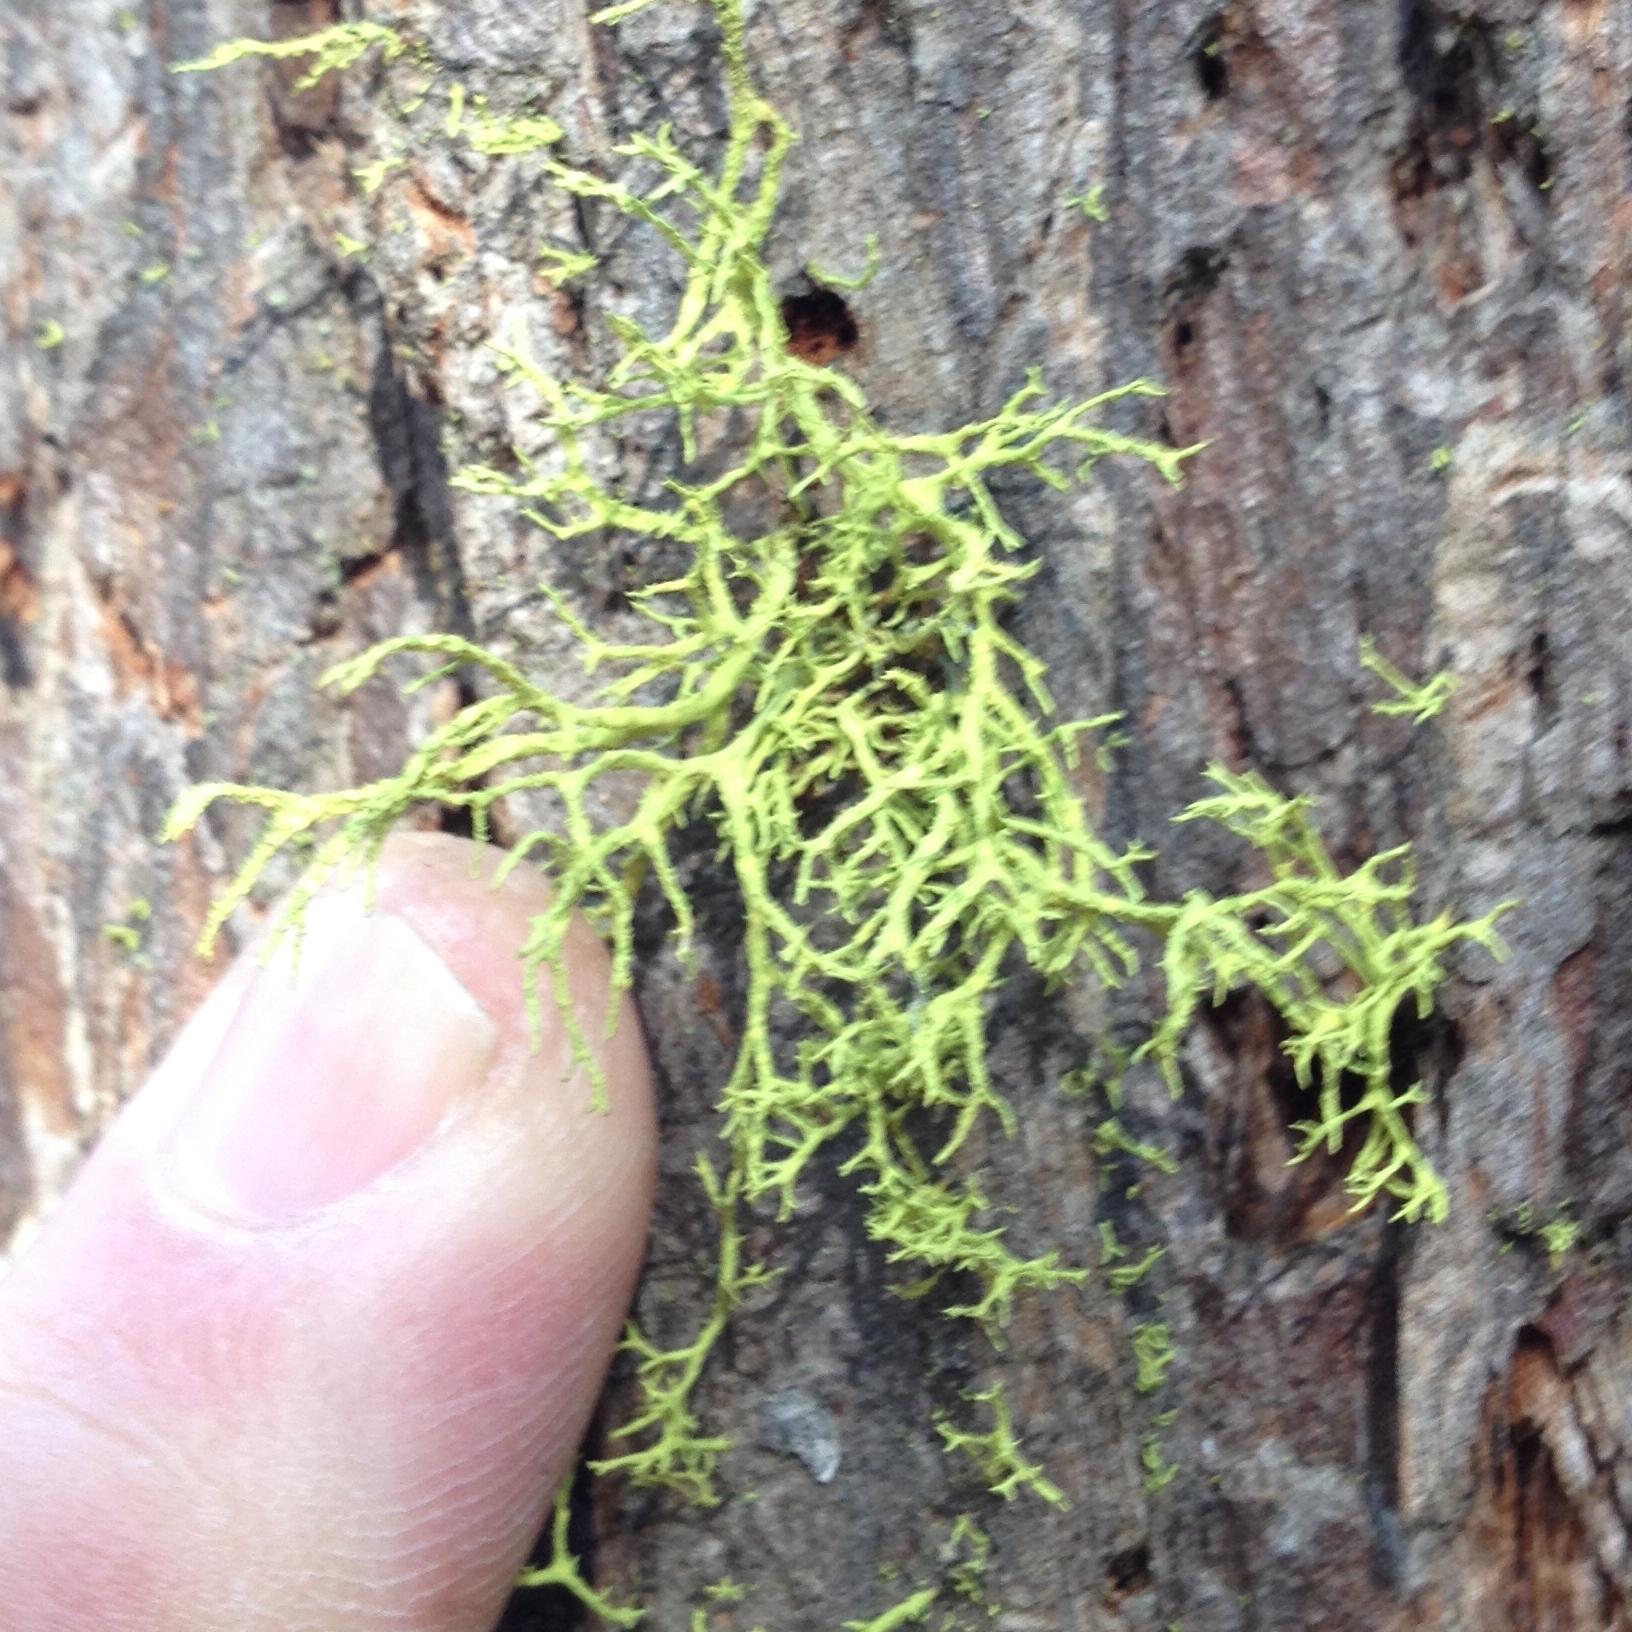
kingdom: Fungi
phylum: Ascomycota
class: Lecanoromycetes
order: Lecanorales
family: Parmeliaceae
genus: Letharia
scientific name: Letharia vulpina
